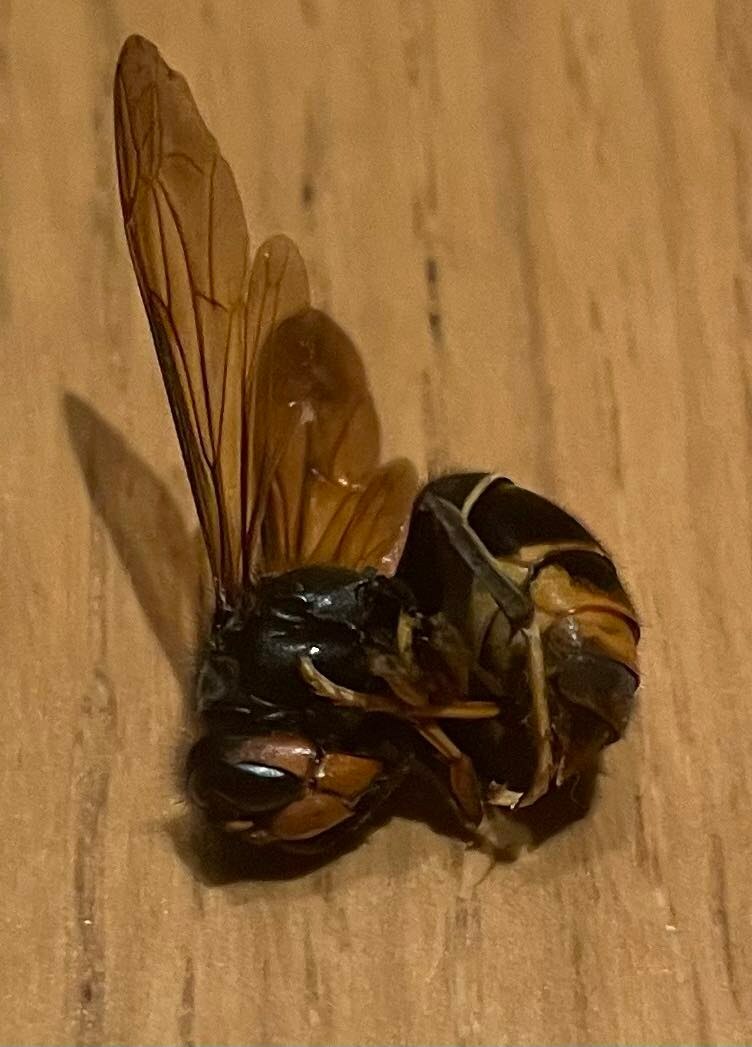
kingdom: Animalia
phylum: Arthropoda
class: Insecta
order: Hymenoptera
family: Vespidae
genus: Vespa
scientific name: Vespa velutina
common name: Asian hornet
